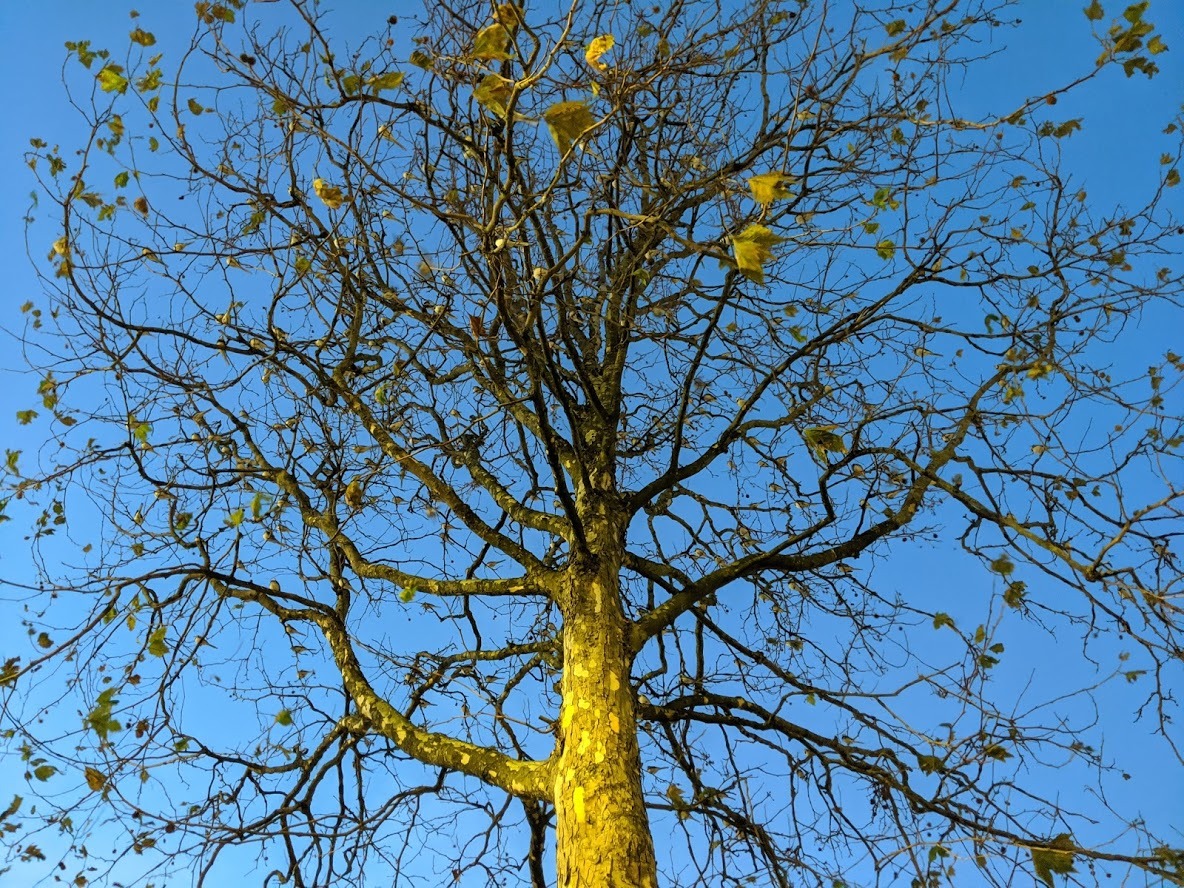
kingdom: Animalia
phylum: Chordata
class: Aves
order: Passeriformes
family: Motacillidae
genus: Motacilla
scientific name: Motacilla alba
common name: White wagtail
